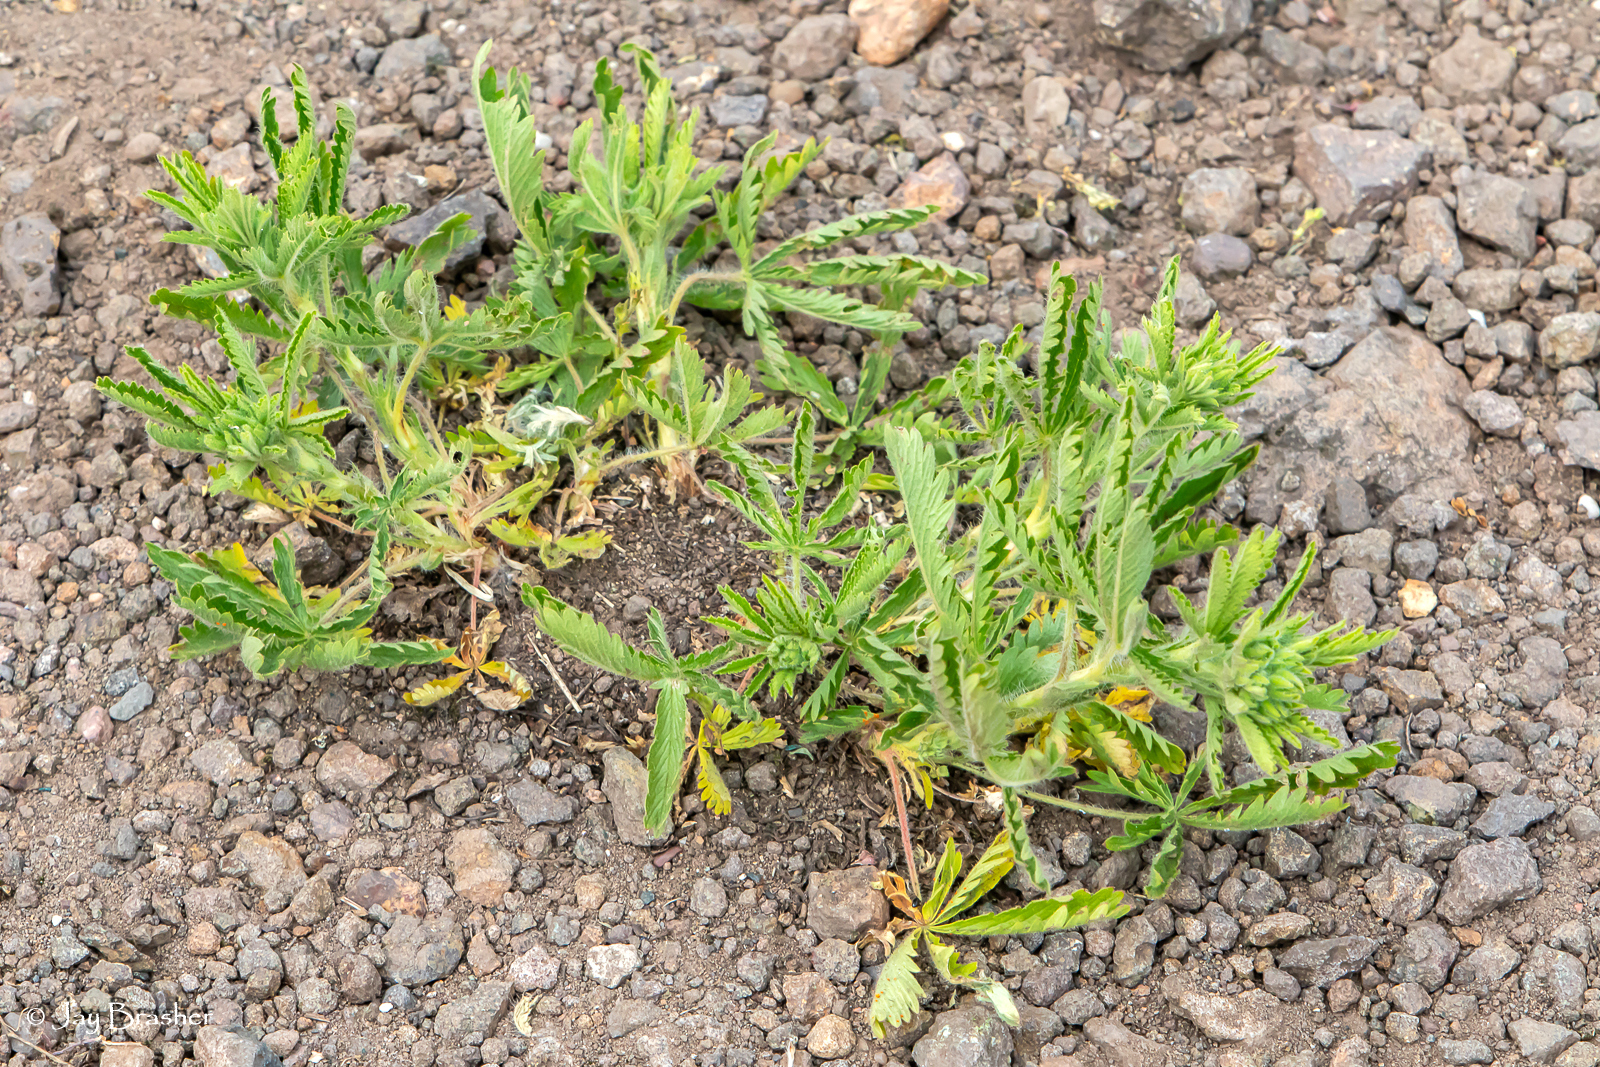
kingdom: Plantae
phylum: Tracheophyta
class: Magnoliopsida
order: Rosales
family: Rosaceae
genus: Potentilla
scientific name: Potentilla recta
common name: Sulphur cinquefoil
